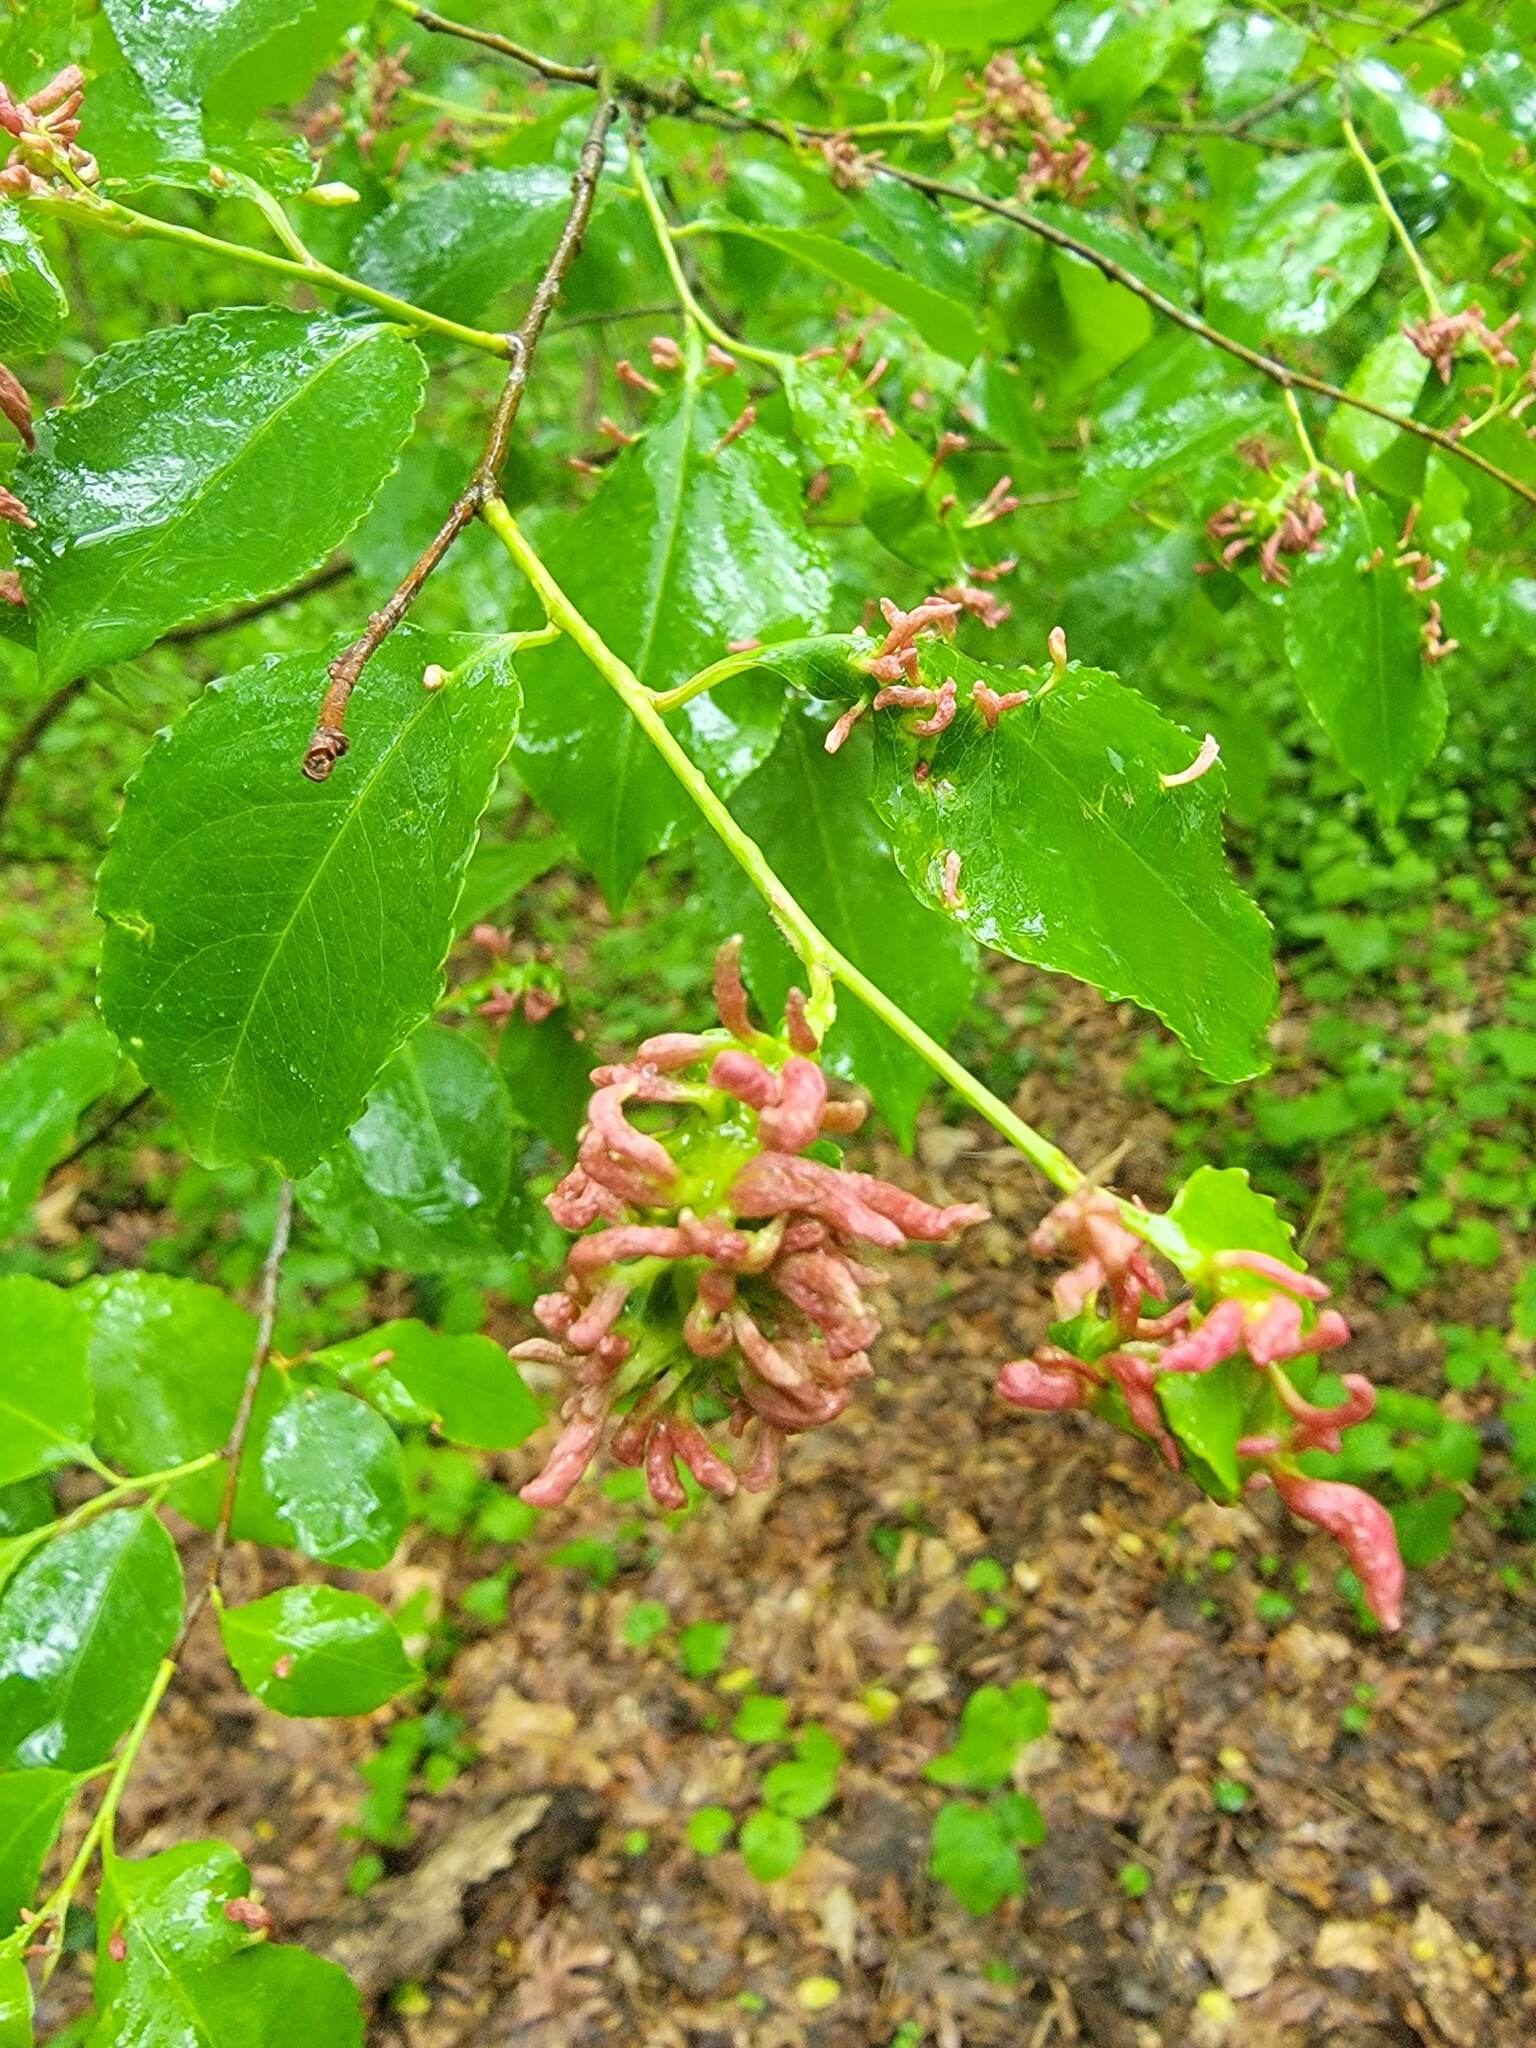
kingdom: Animalia
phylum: Arthropoda
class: Arachnida
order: Trombidiformes
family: Eriophyidae
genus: Eriophyes
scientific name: Eriophyes
